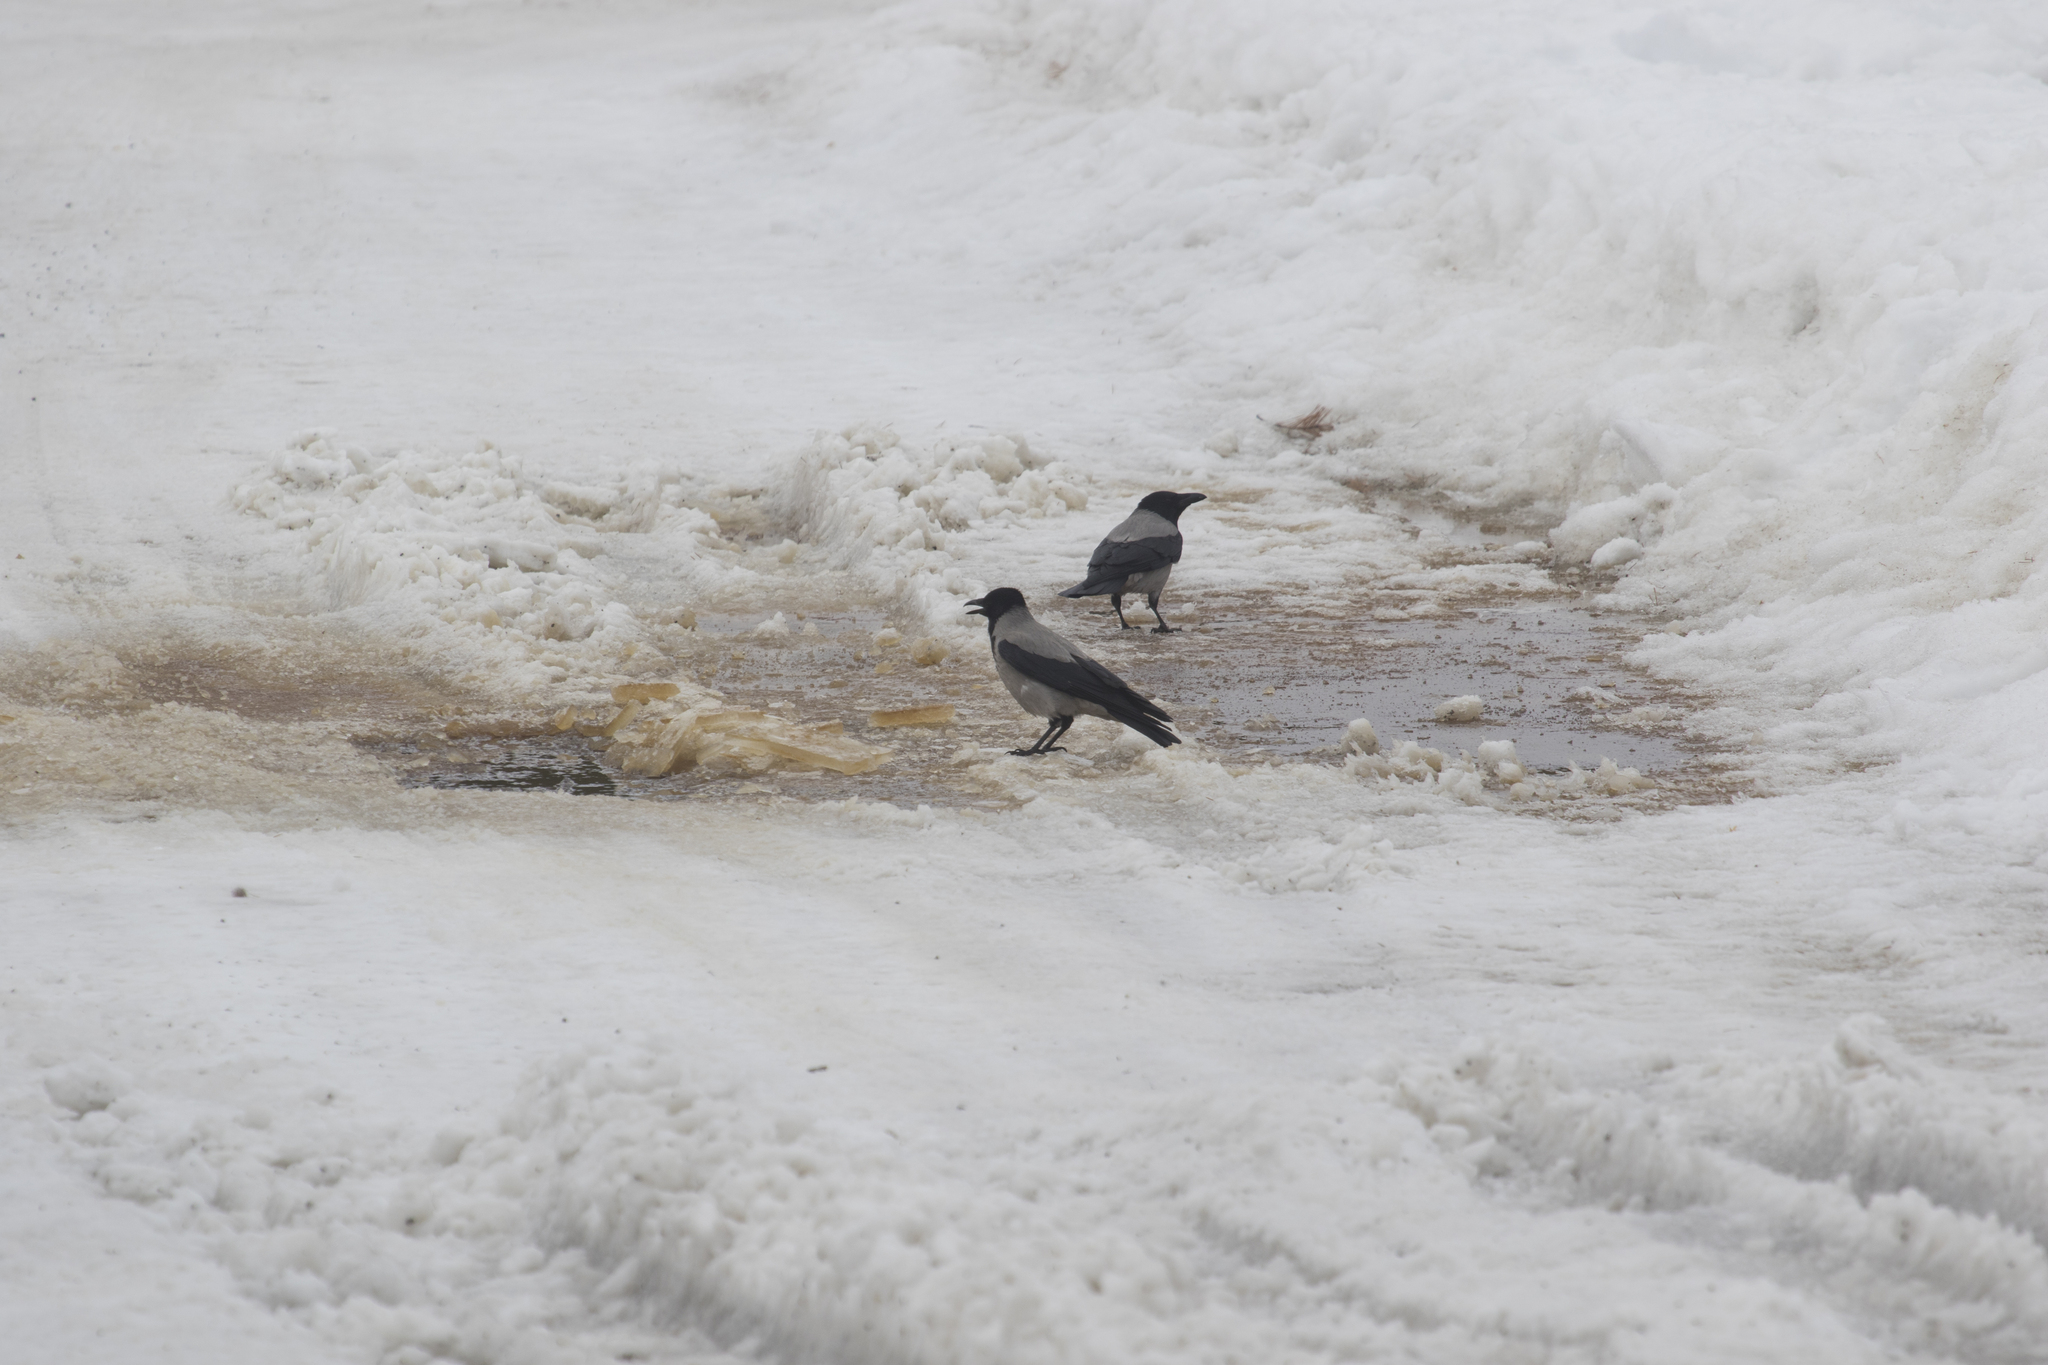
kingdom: Animalia
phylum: Chordata
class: Aves
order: Passeriformes
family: Corvidae
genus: Corvus
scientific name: Corvus cornix
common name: Hooded crow
